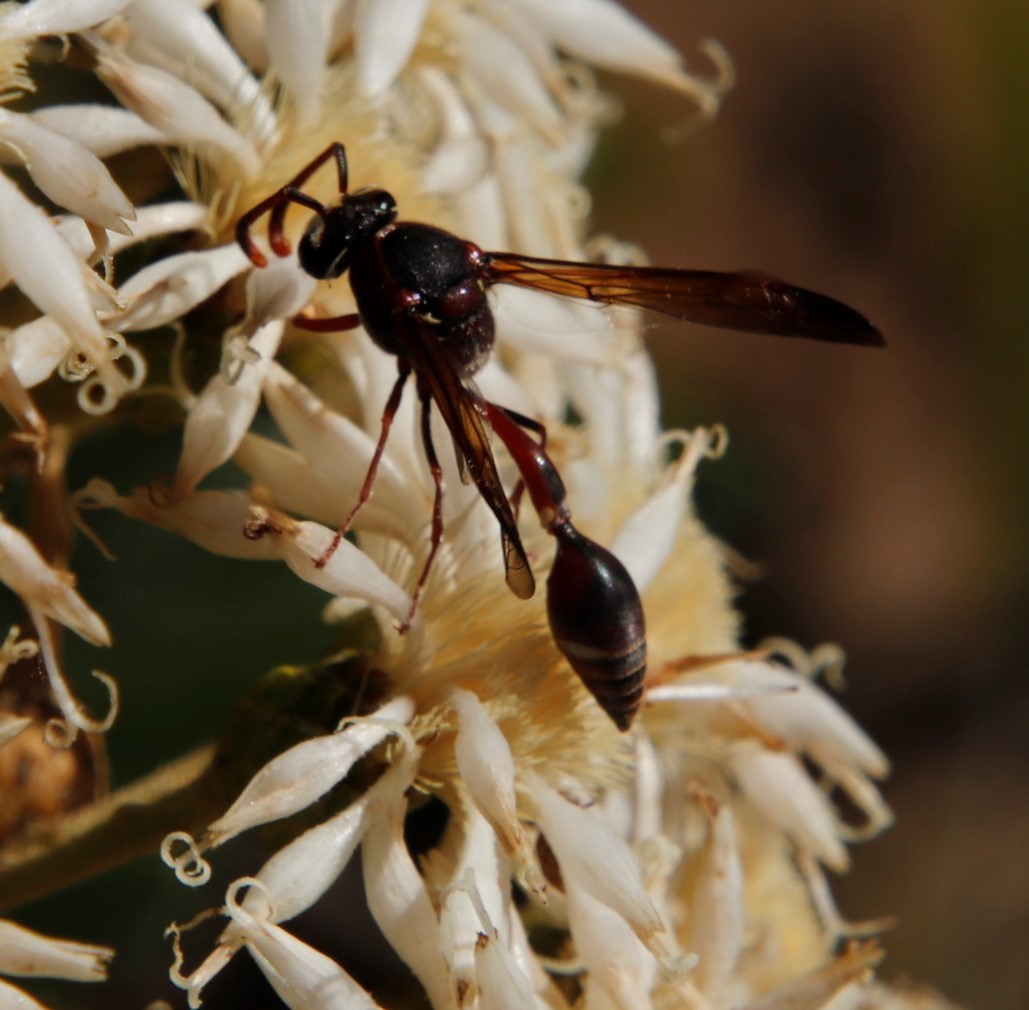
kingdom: Animalia
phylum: Arthropoda
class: Insecta
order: Hymenoptera
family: Eumenidae
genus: Delta
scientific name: Delta
